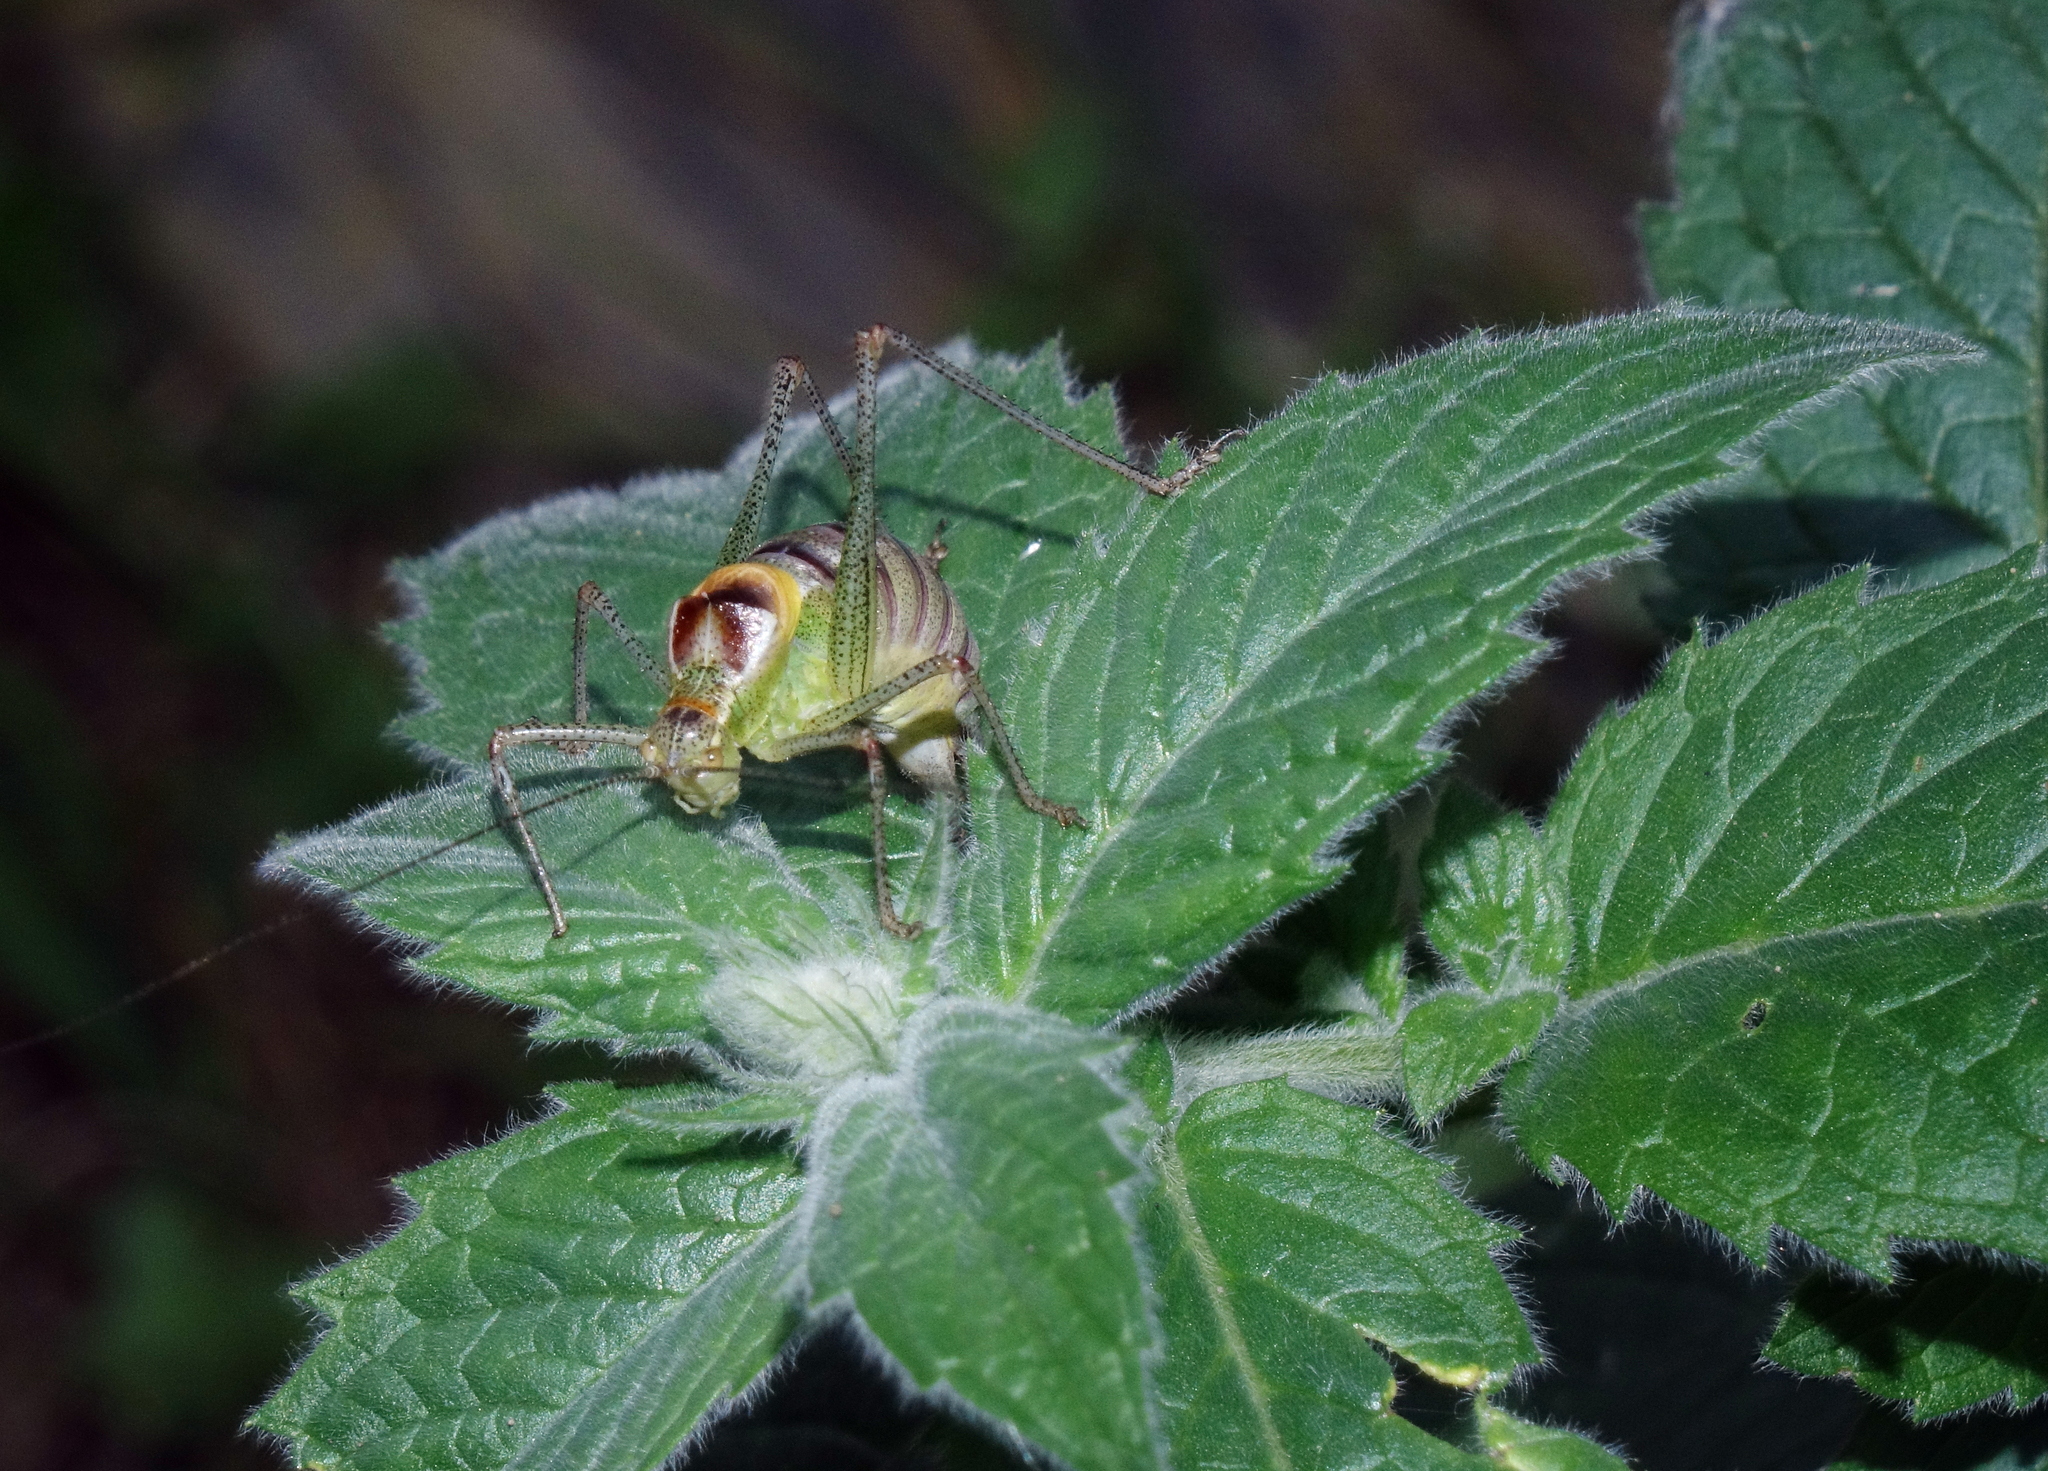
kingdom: Animalia
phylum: Arthropoda
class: Insecta
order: Orthoptera
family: Tettigoniidae
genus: Poecilimon
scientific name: Poecilimon geoktschajcus
